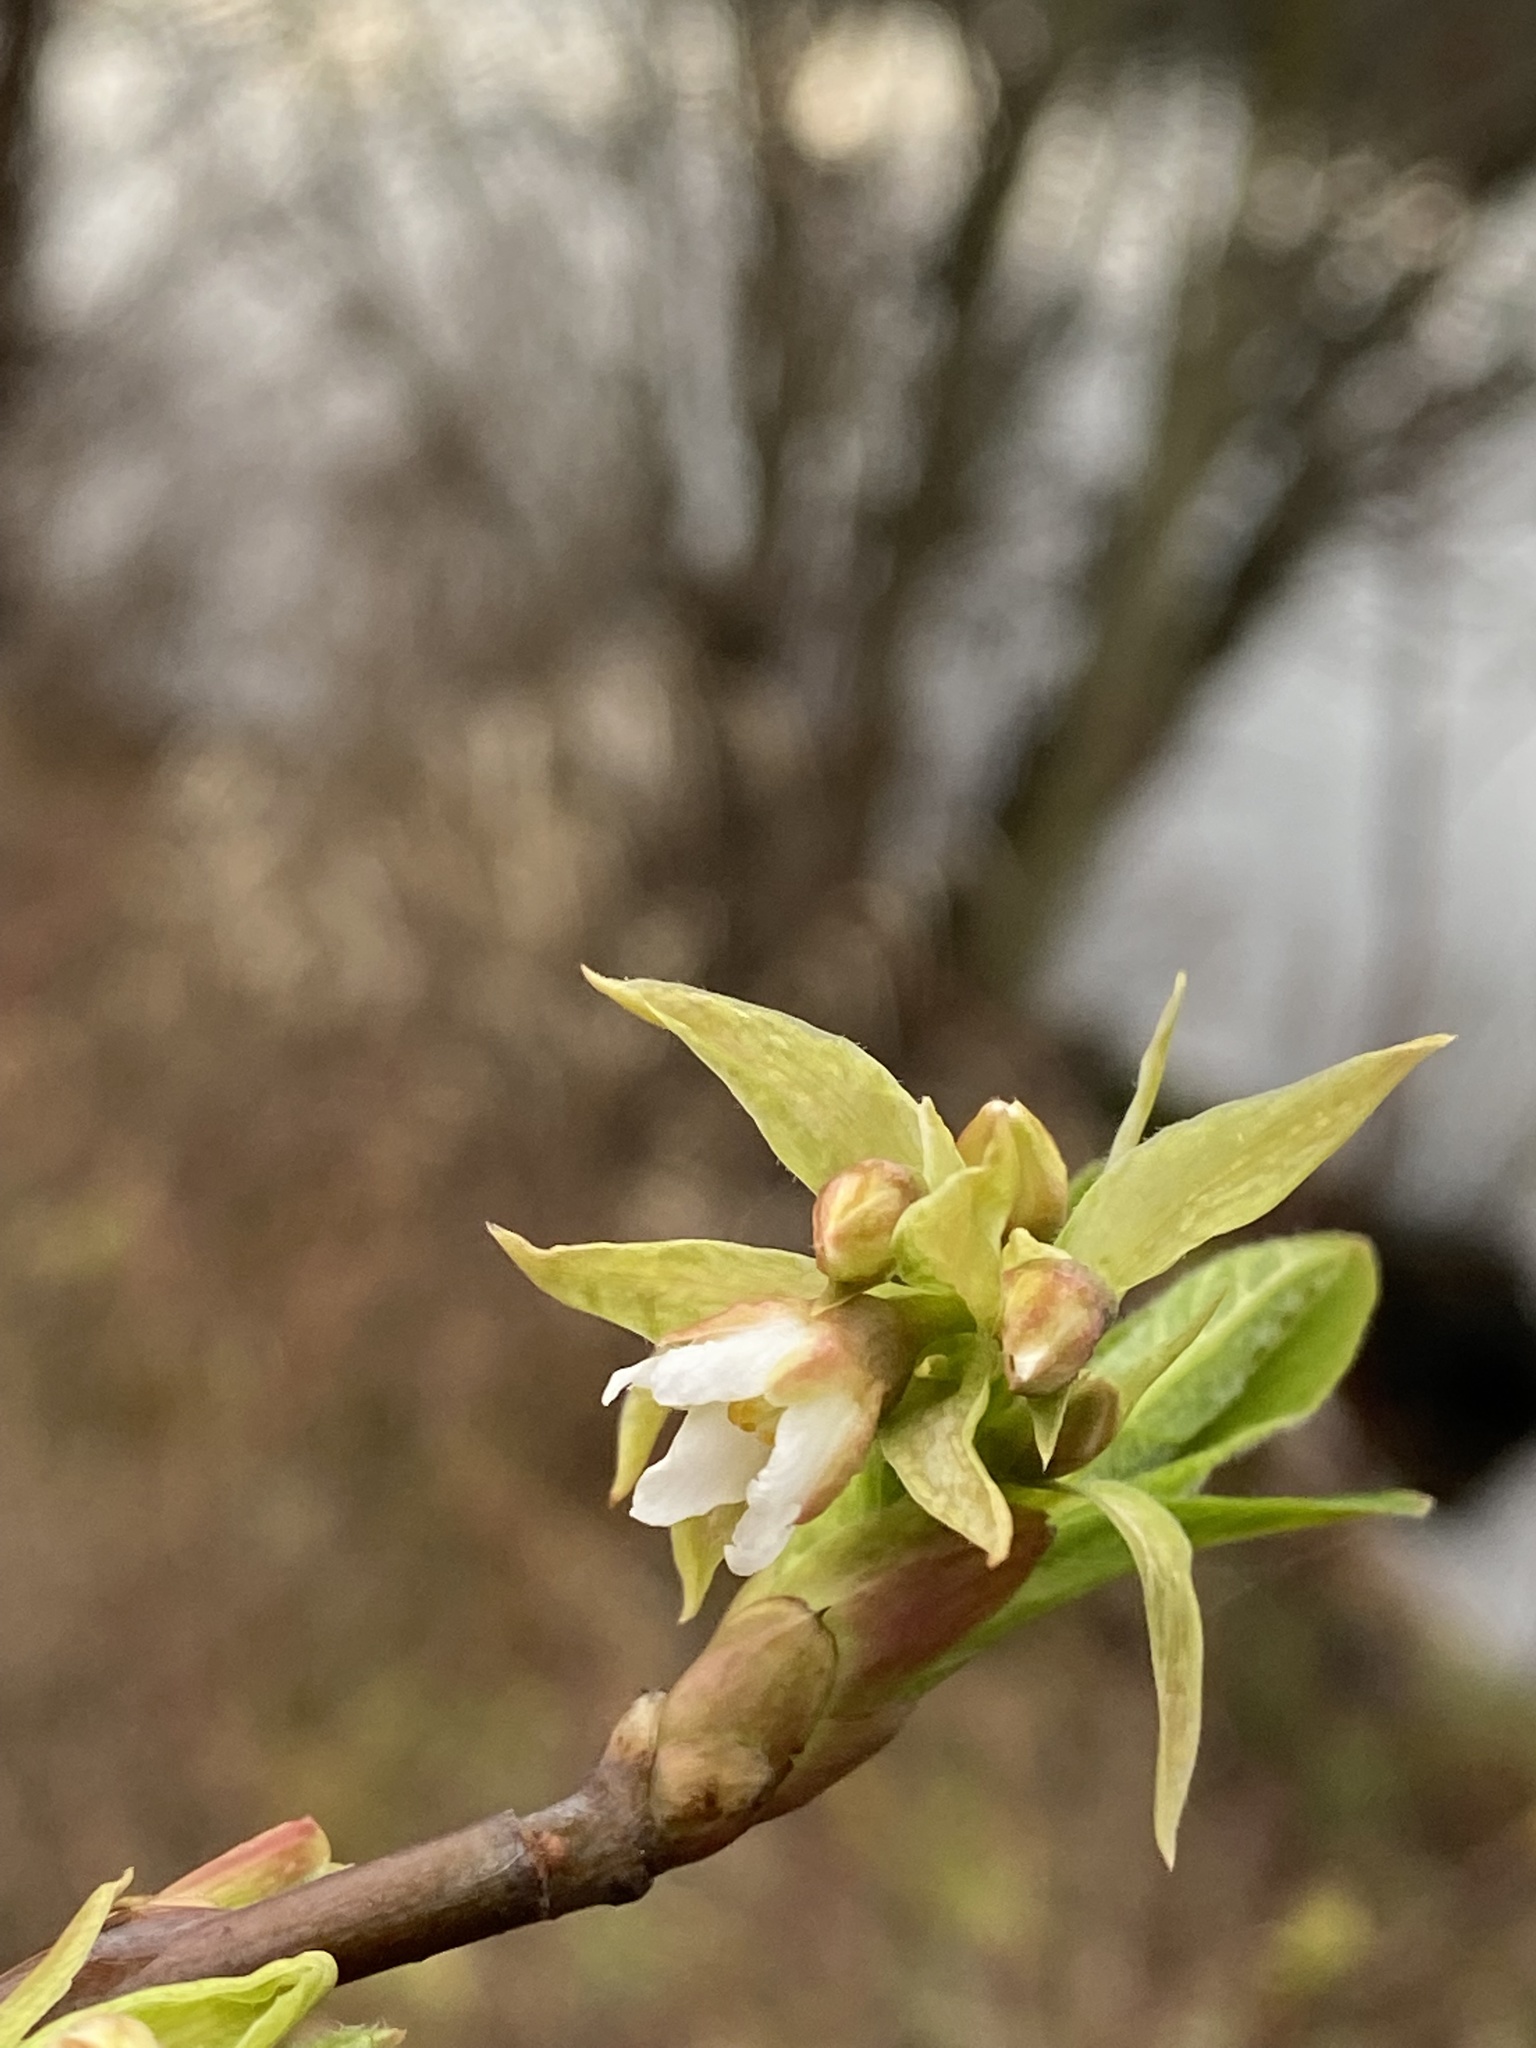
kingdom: Plantae
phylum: Tracheophyta
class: Magnoliopsida
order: Rosales
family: Rosaceae
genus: Oemleria
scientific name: Oemleria cerasiformis
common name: Osoberry
